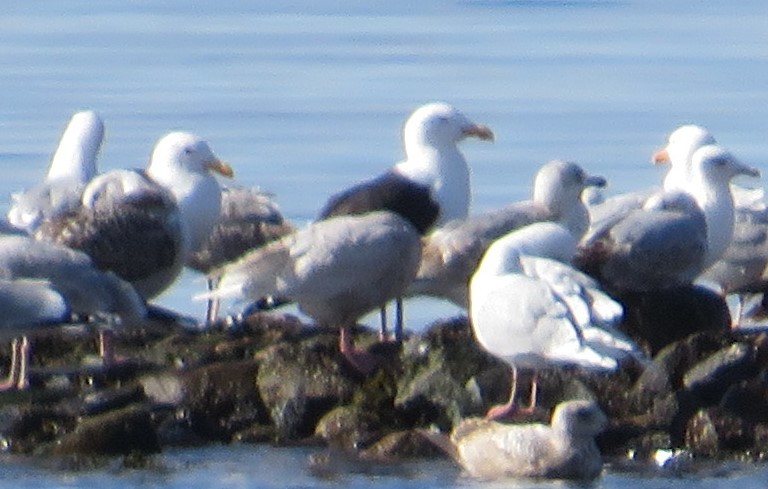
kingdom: Animalia
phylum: Chordata
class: Aves
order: Charadriiformes
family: Laridae
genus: Larus
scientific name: Larus marinus
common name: Great black-backed gull
